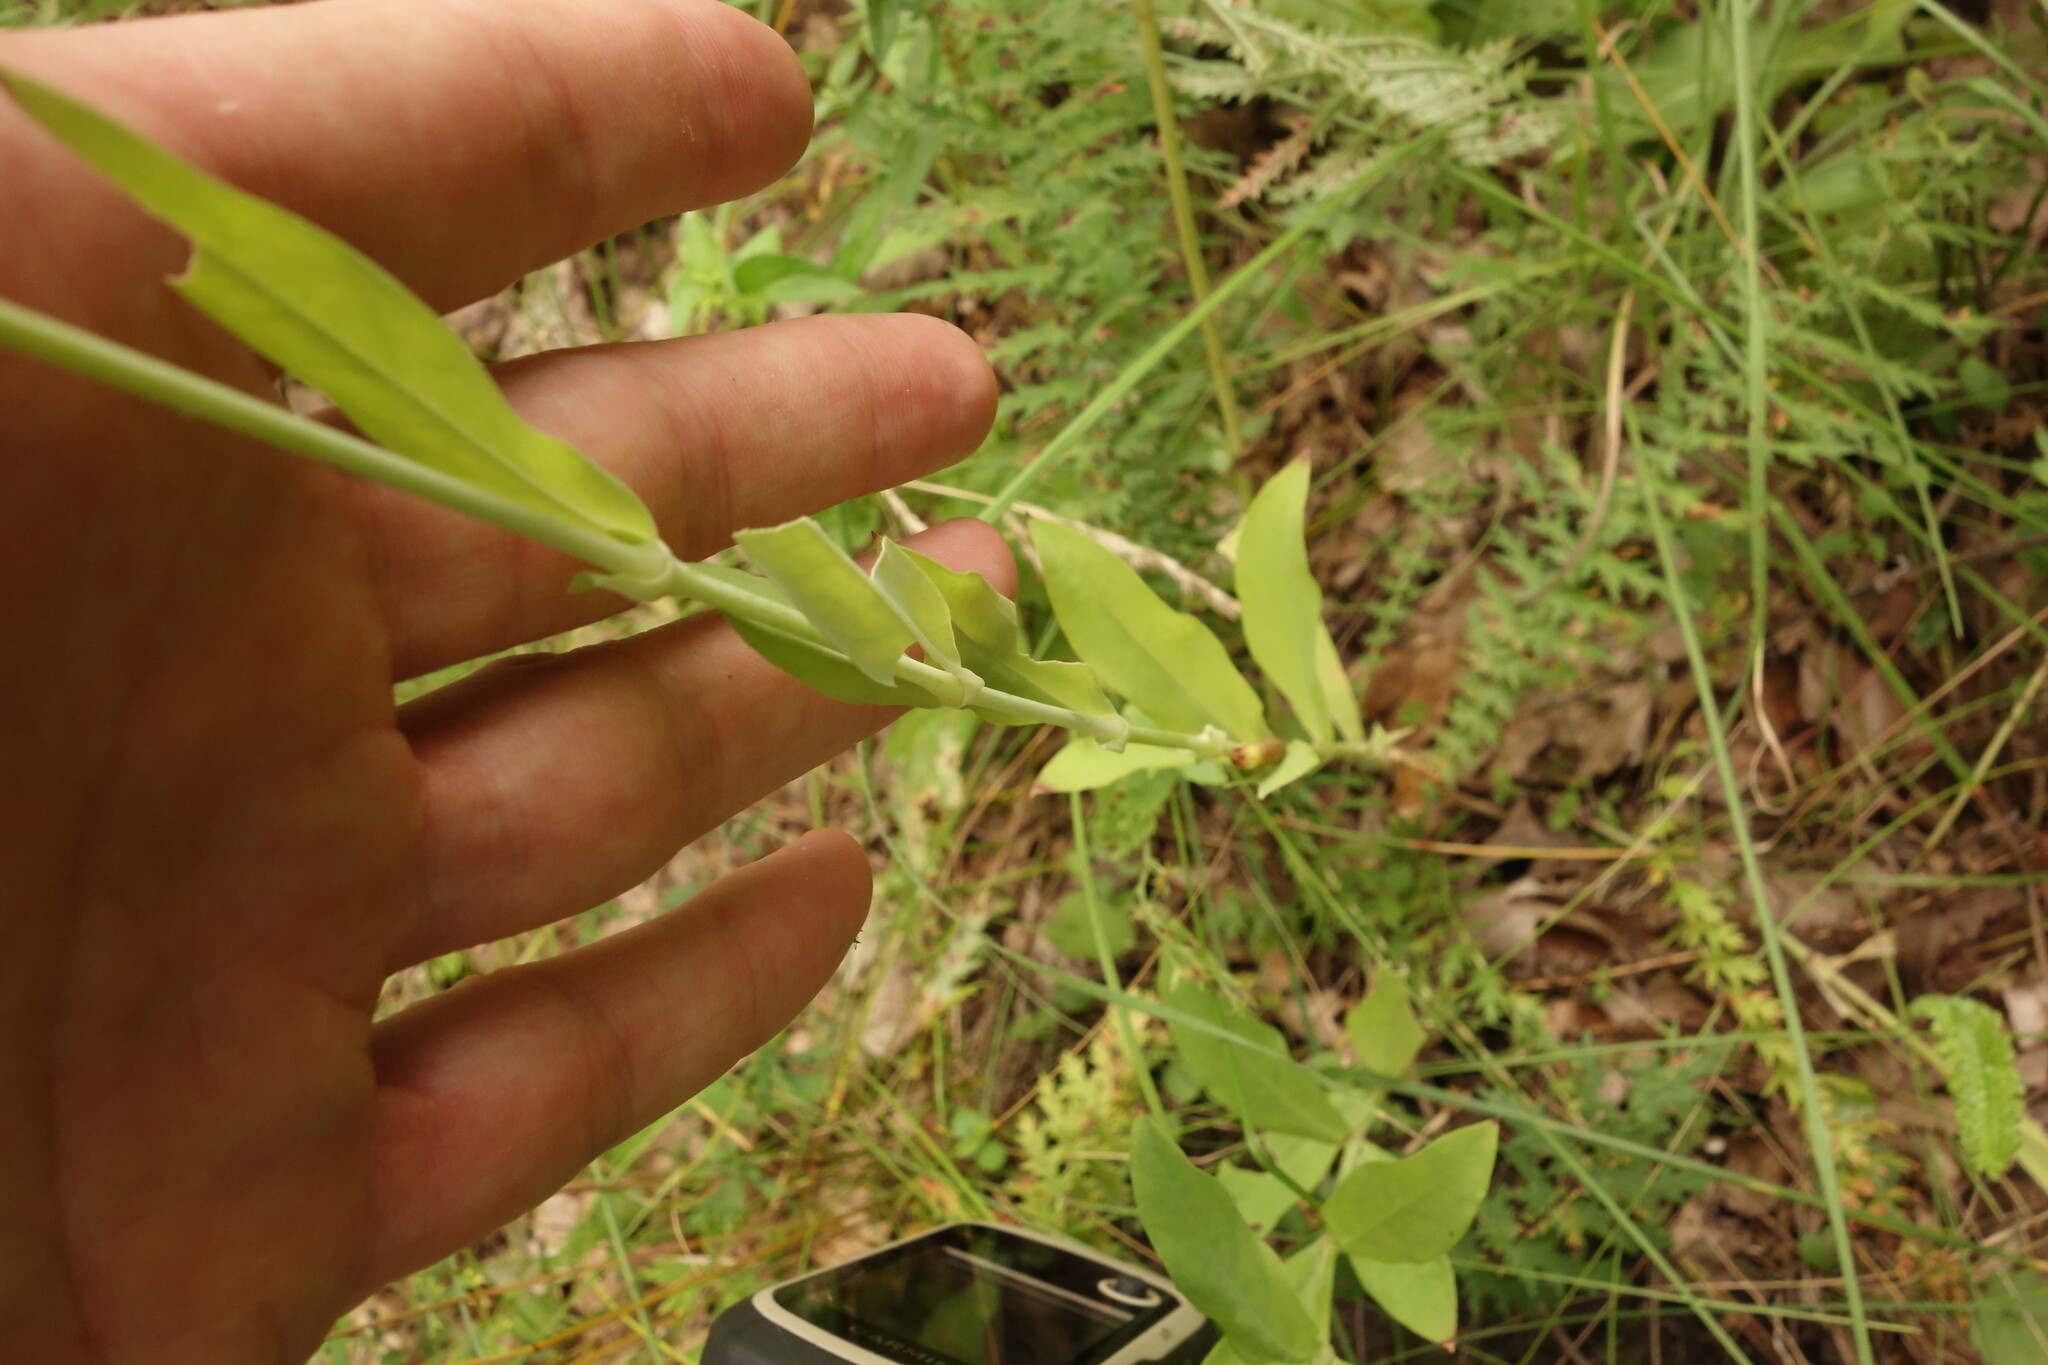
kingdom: Plantae
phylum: Tracheophyta
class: Magnoliopsida
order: Caryophyllales
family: Caryophyllaceae
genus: Silene
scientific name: Silene vulgaris
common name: Bladder campion
